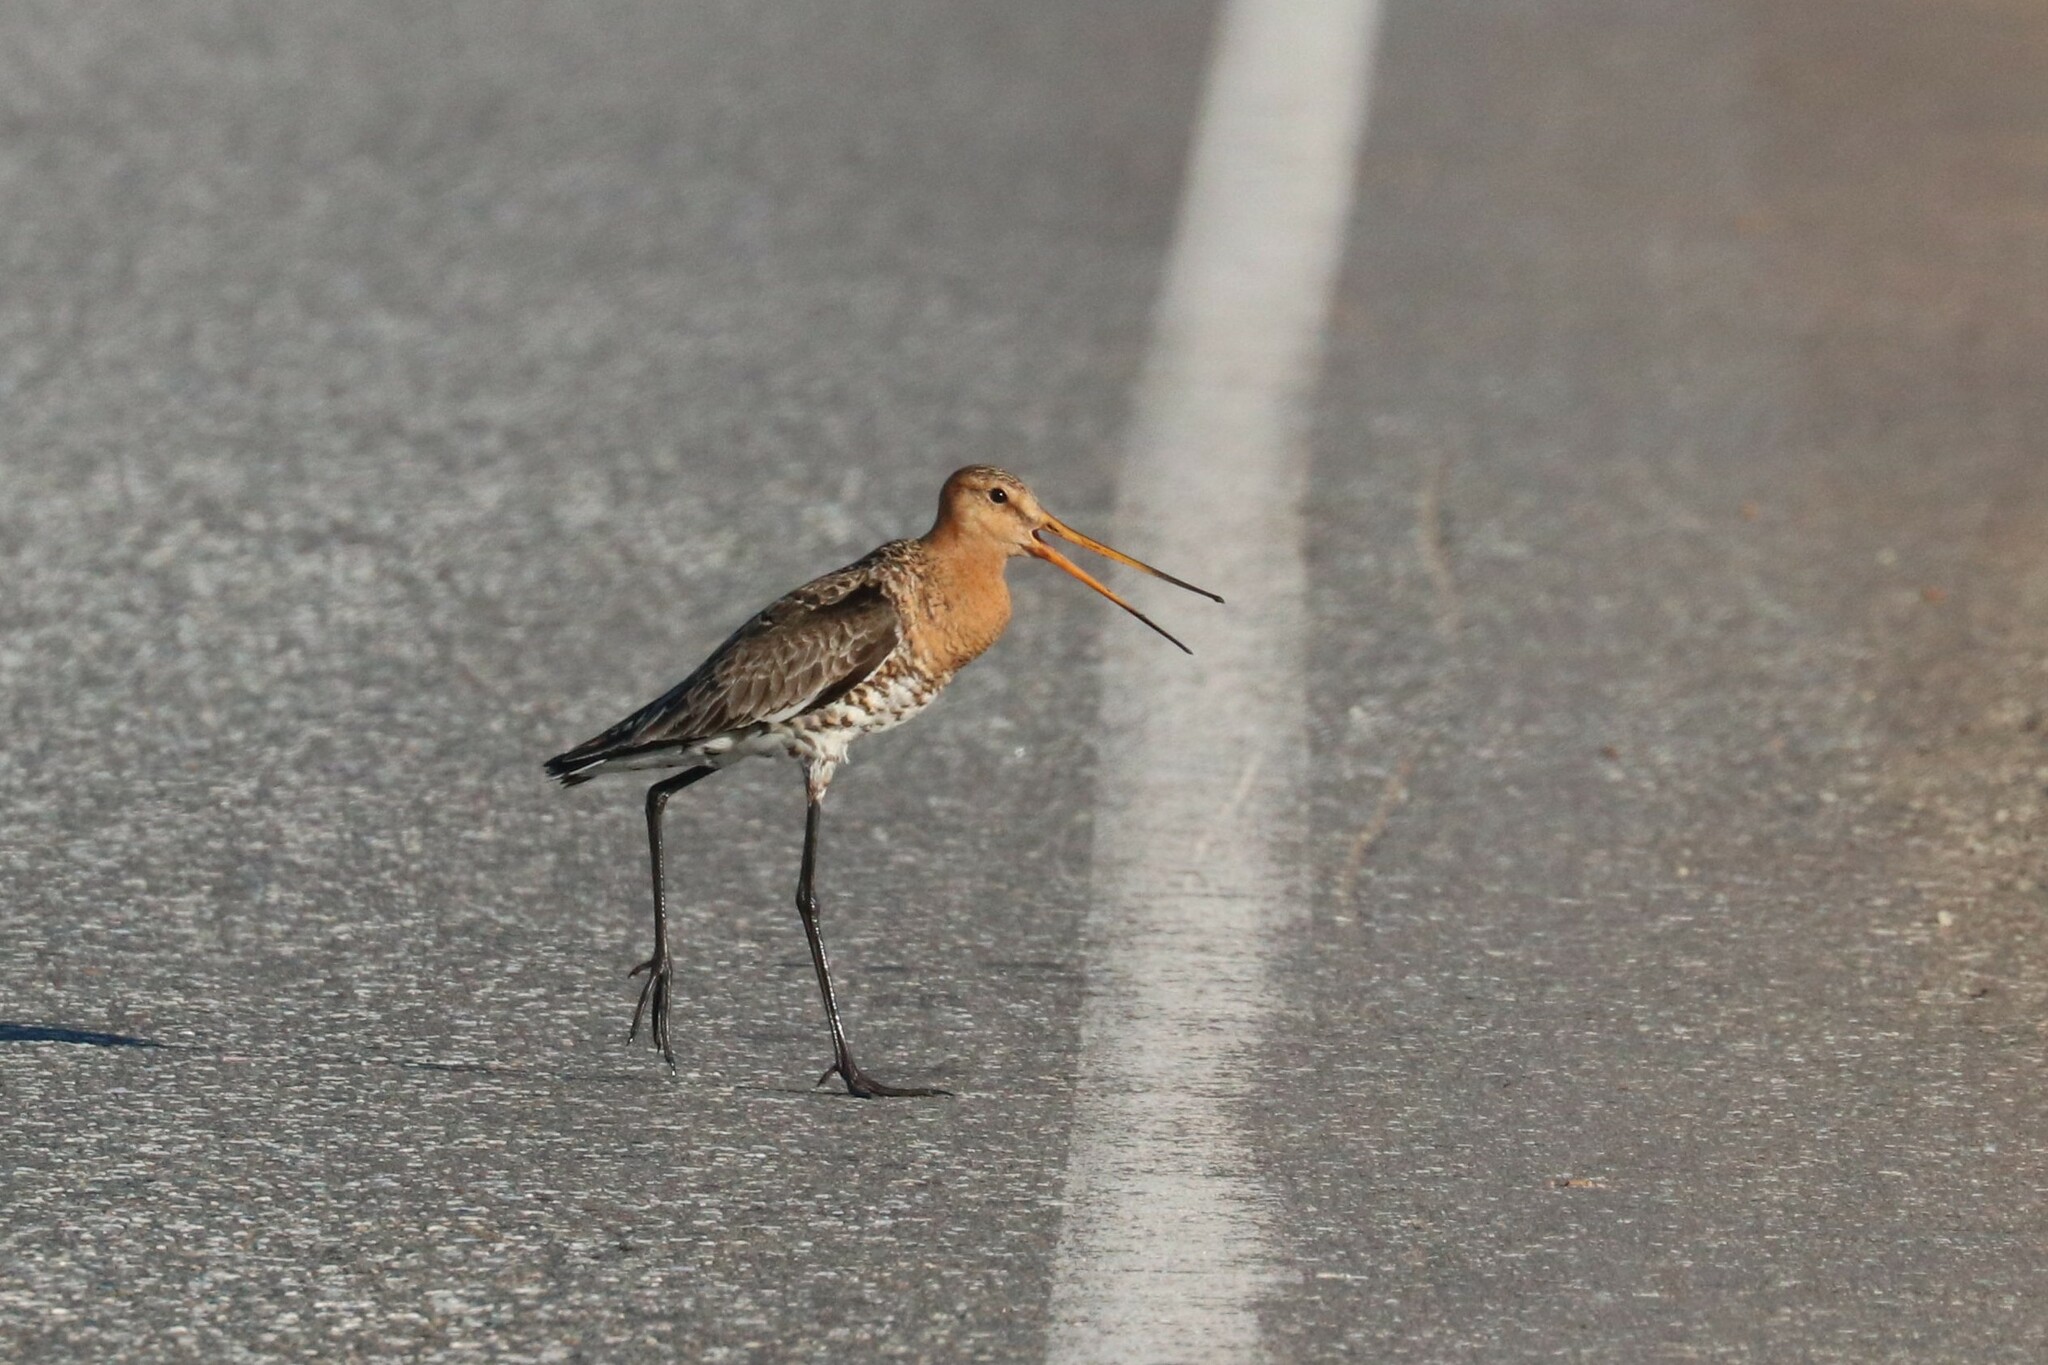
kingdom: Animalia
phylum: Chordata
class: Aves
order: Charadriiformes
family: Scolopacidae
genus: Limosa
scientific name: Limosa limosa
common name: Black-tailed godwit
